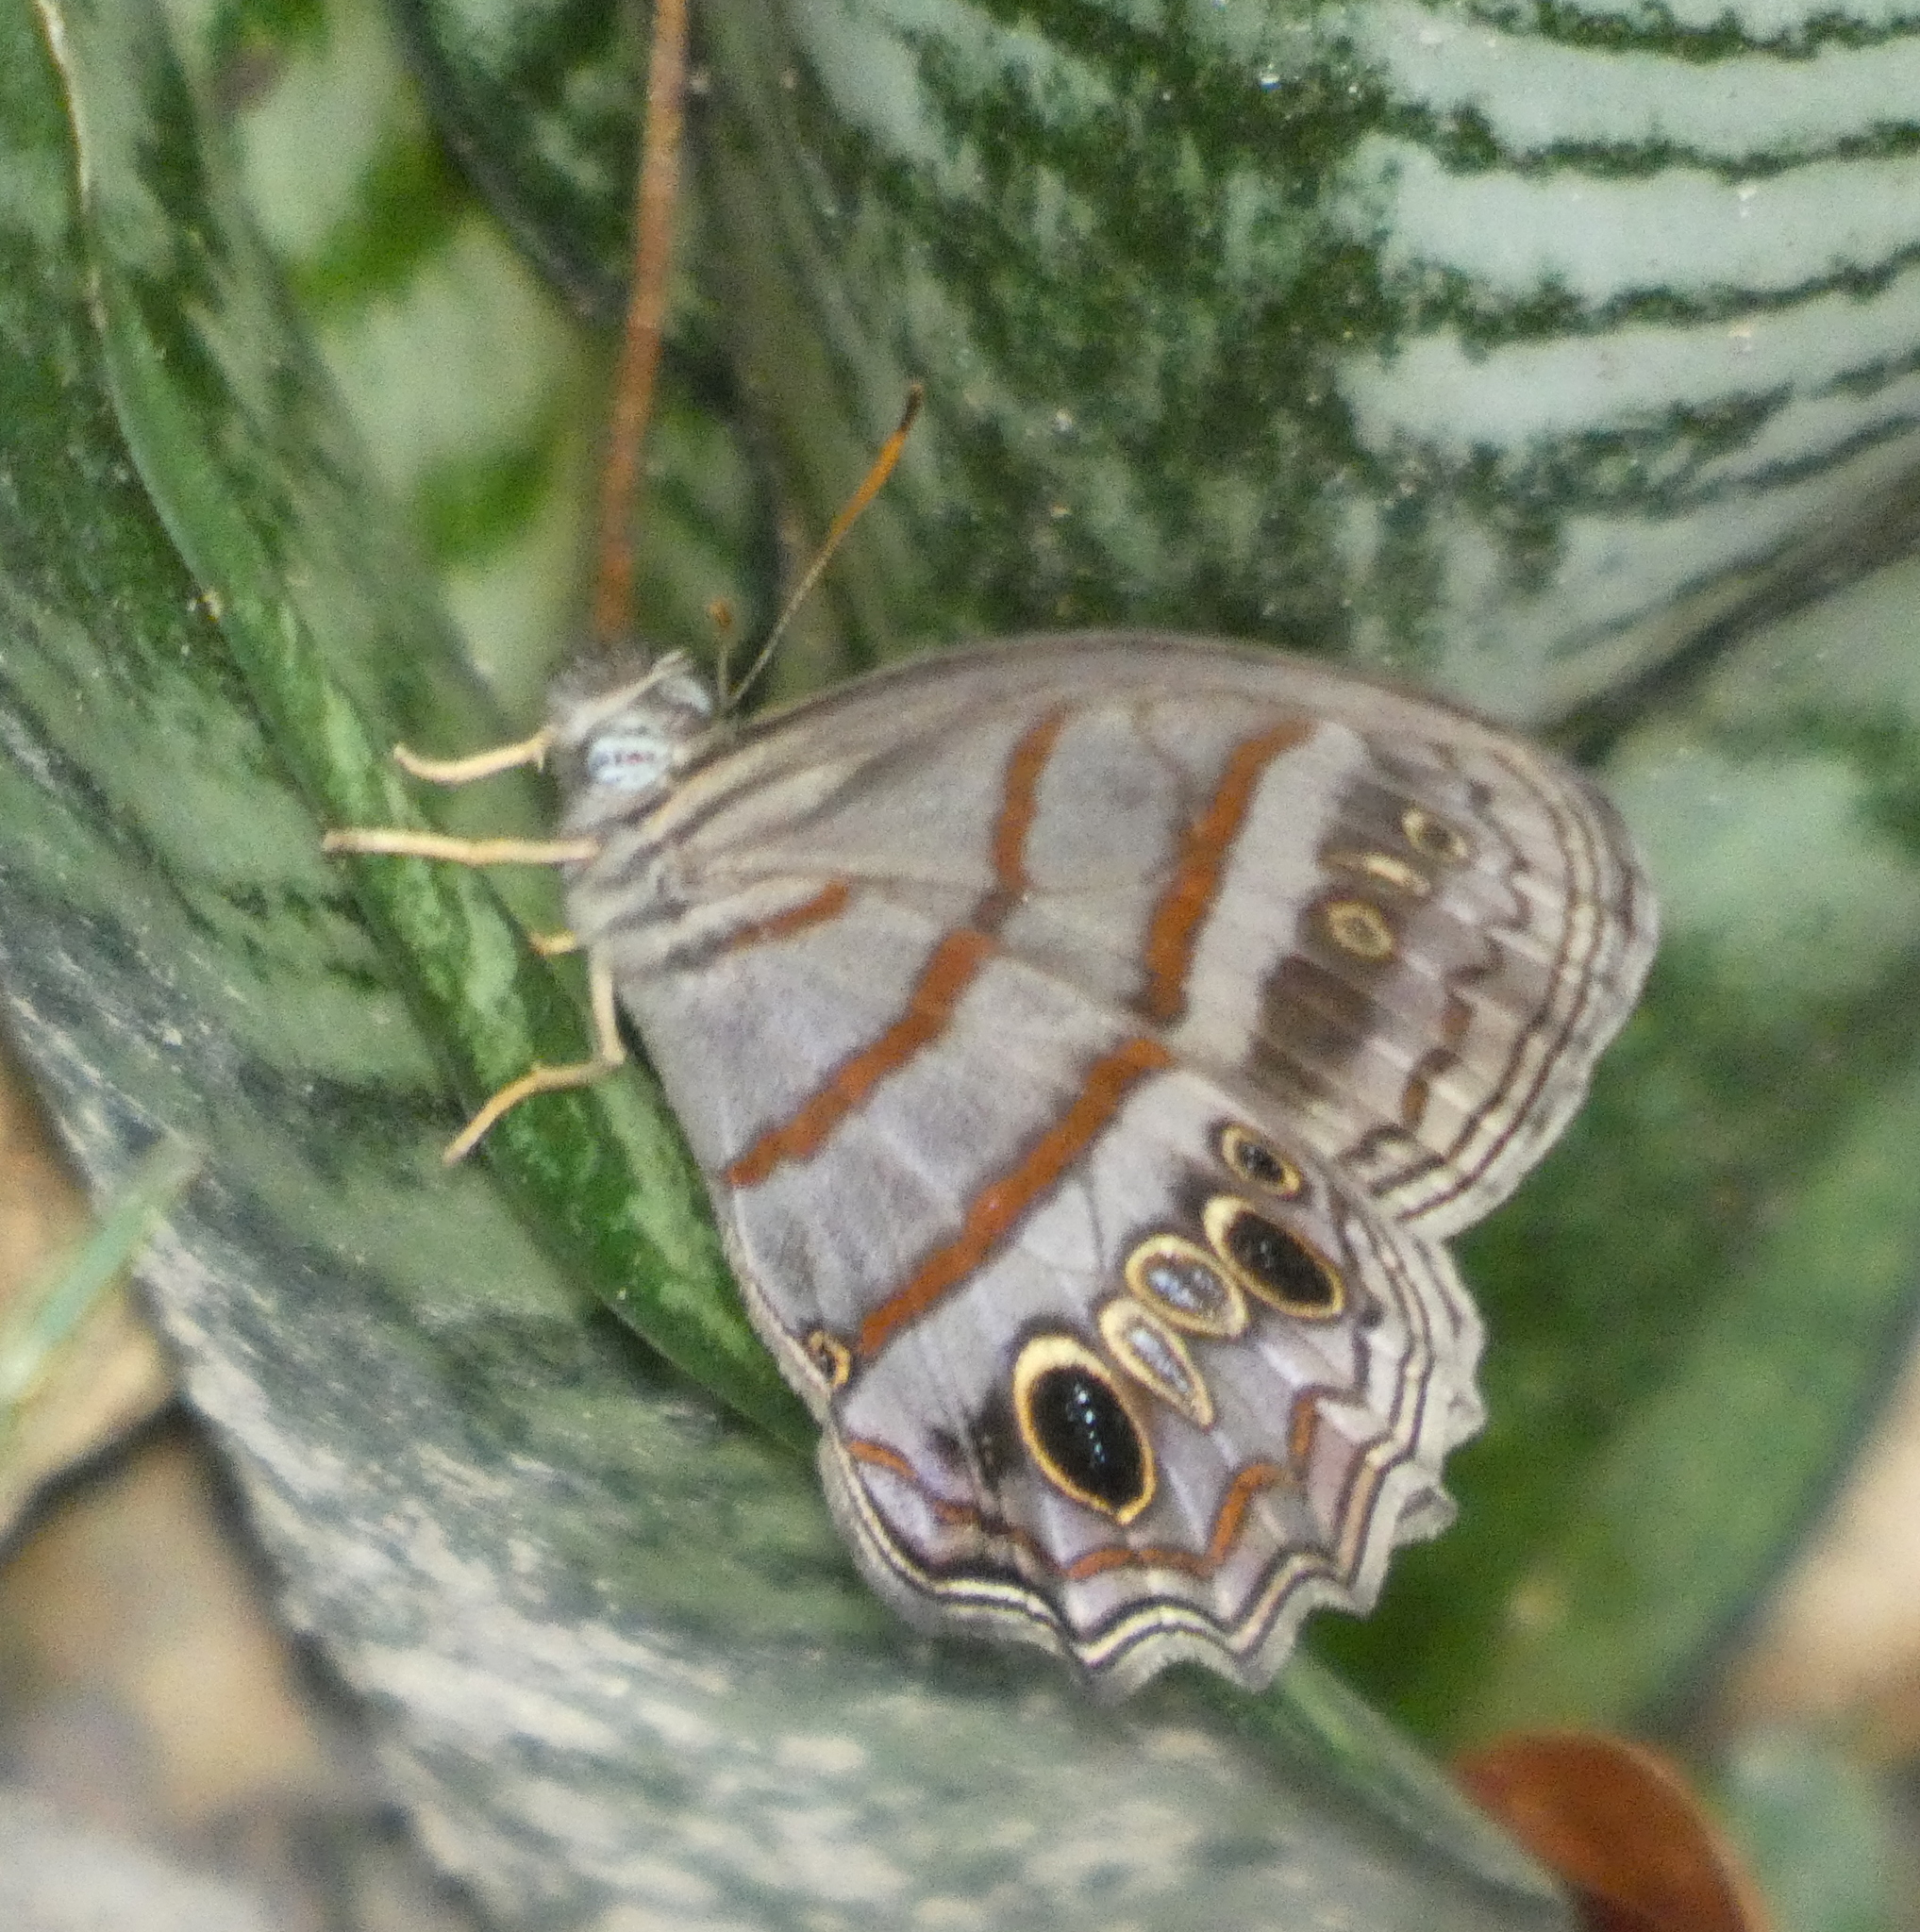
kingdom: Animalia
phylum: Arthropoda
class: Insecta
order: Lepidoptera
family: Nymphalidae
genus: Magneuptychia
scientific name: Magneuptychia libye
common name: Blue-gray satyr
